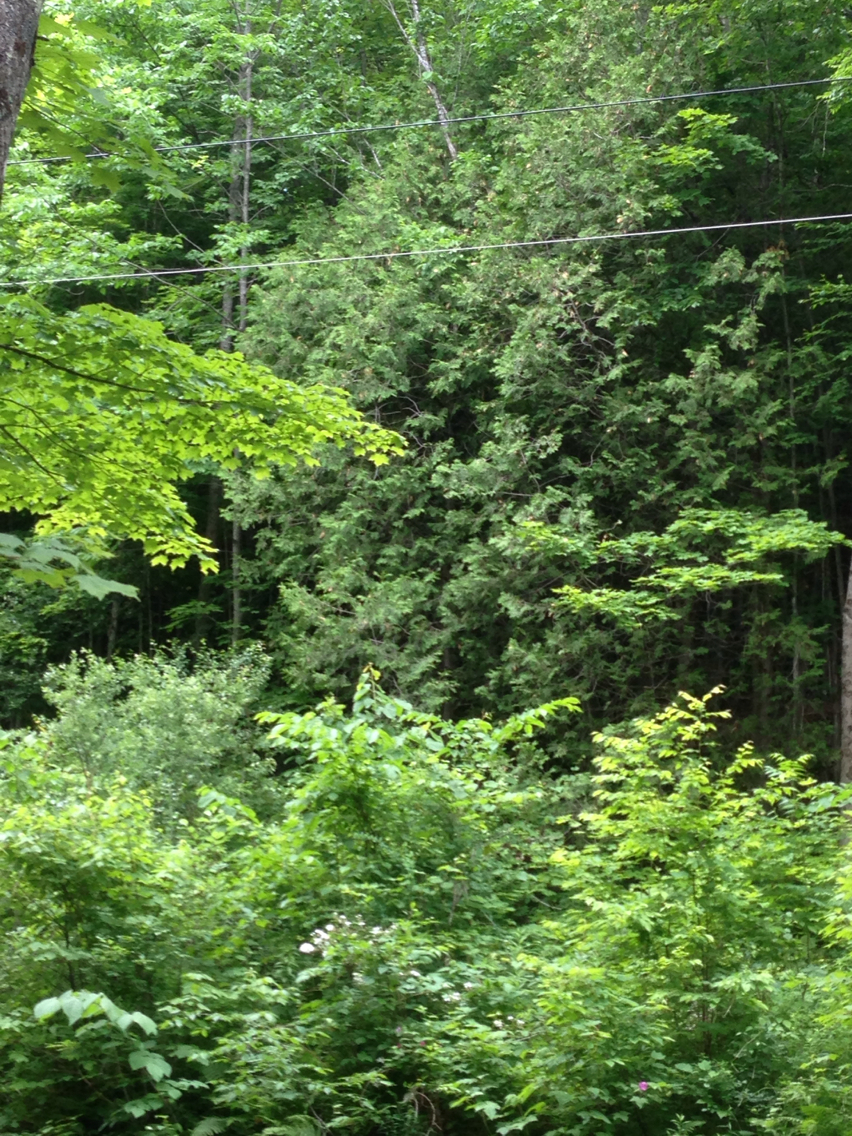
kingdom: Plantae
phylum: Tracheophyta
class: Pinopsida
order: Pinales
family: Cupressaceae
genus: Thuja
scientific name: Thuja occidentalis
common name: Northern white-cedar
